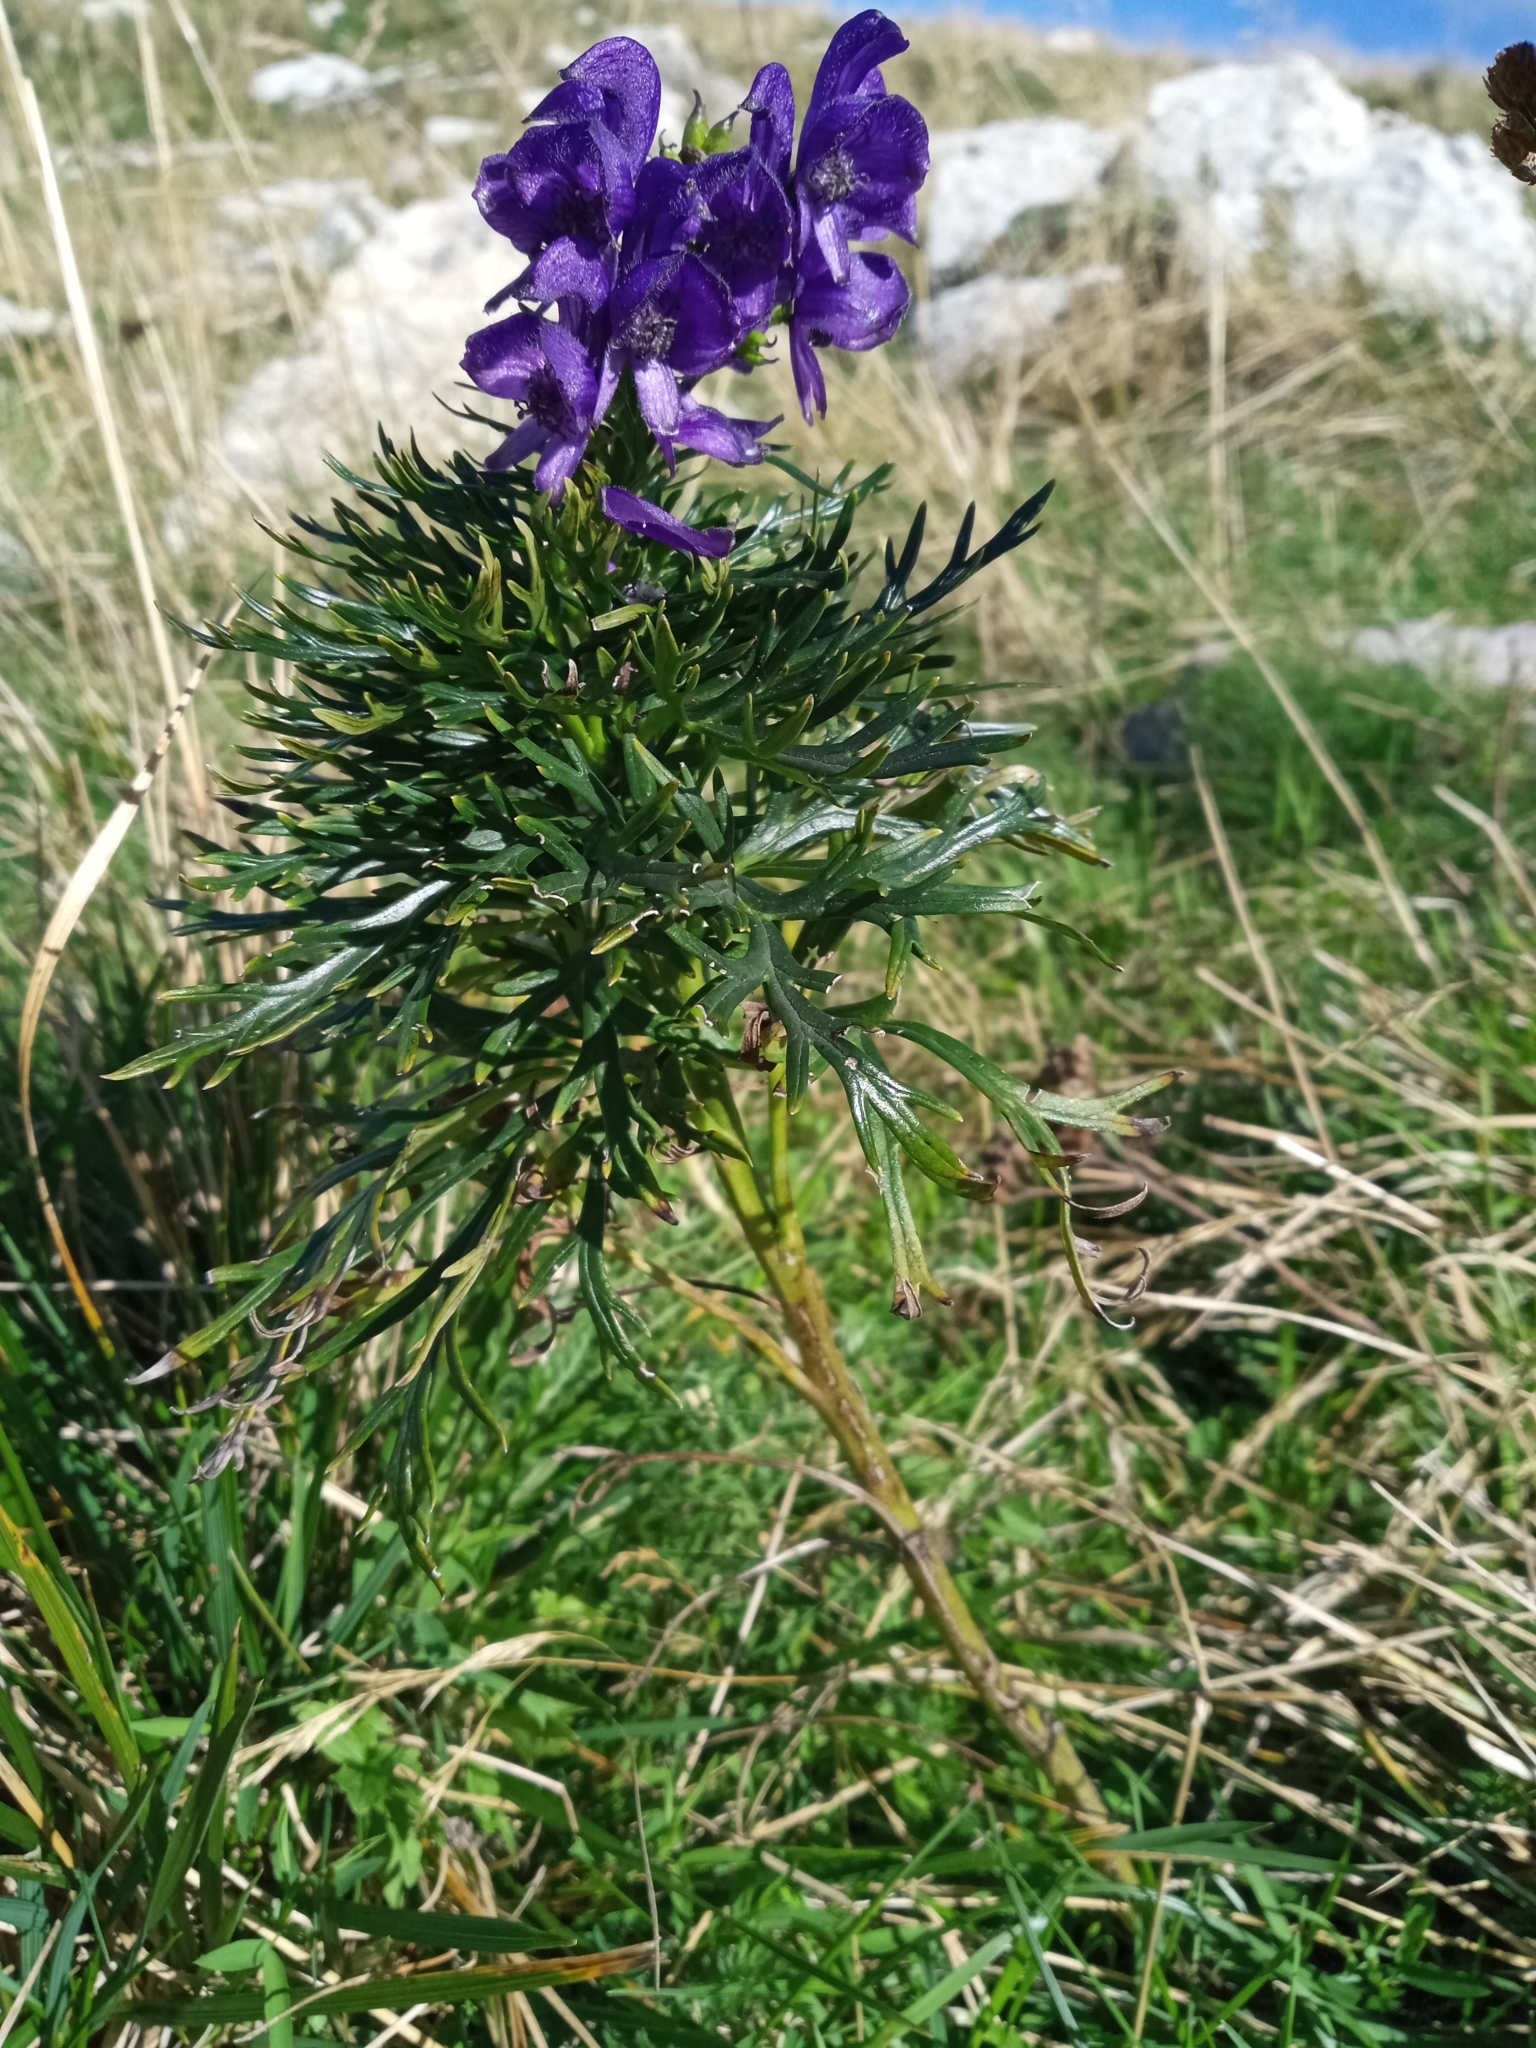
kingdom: Plantae
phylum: Tracheophyta
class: Magnoliopsida
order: Ranunculales
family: Ranunculaceae
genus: Aconitum
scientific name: Aconitum tauricum
